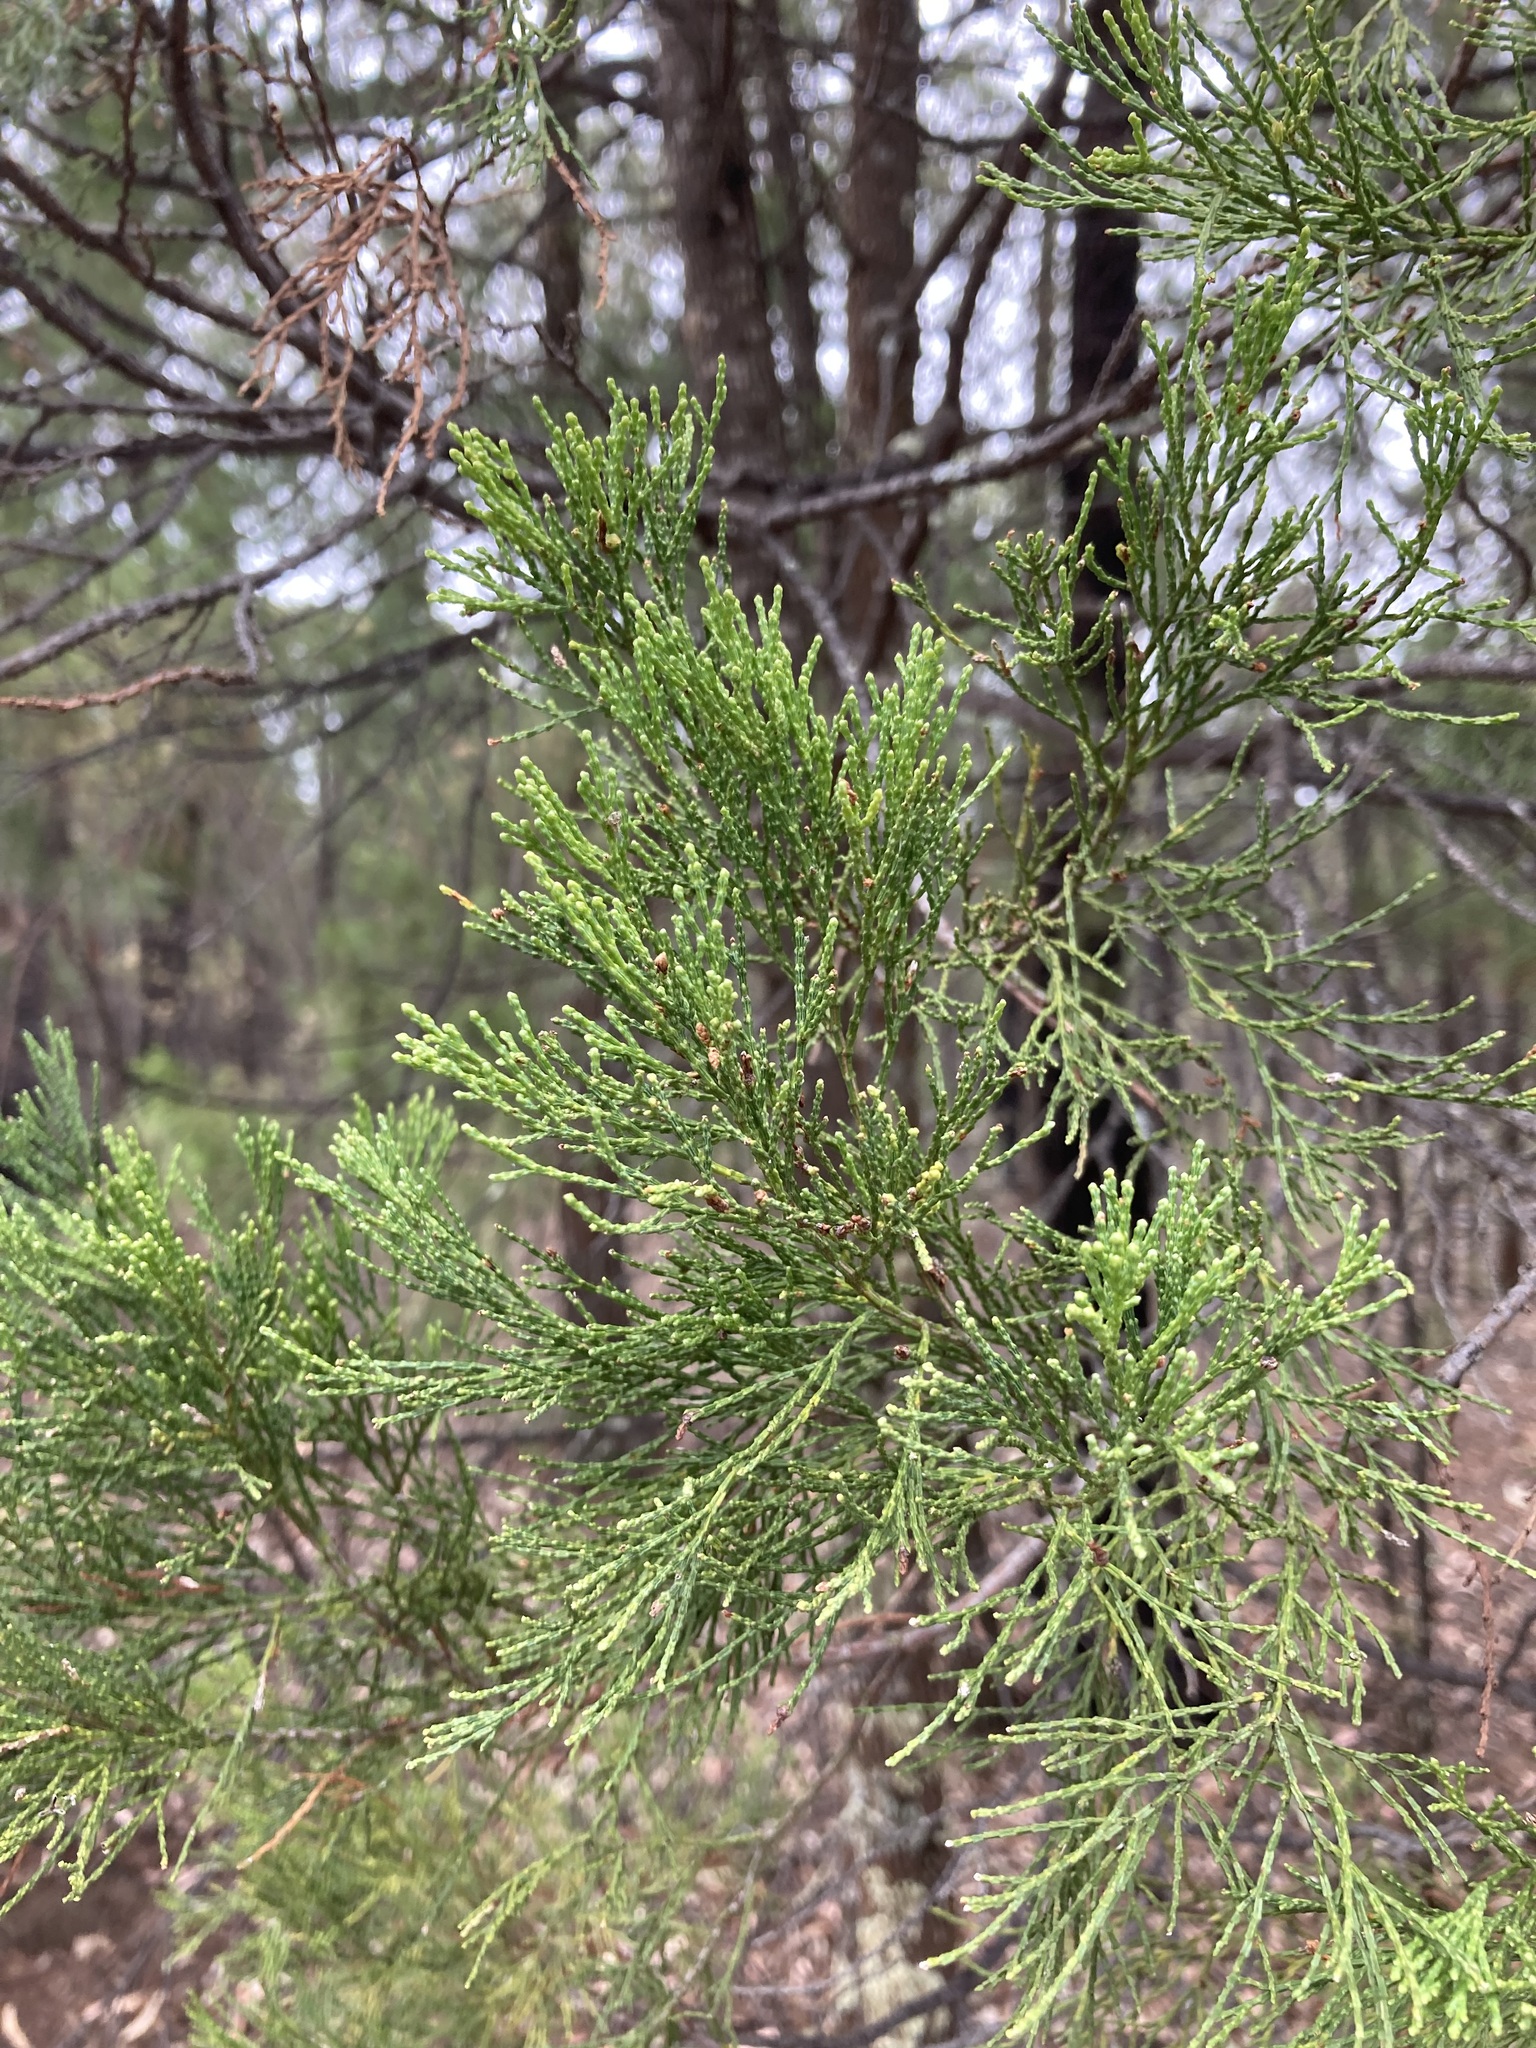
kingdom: Plantae
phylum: Tracheophyta
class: Pinopsida
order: Pinales
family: Cupressaceae
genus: Callitris
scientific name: Callitris endlicheri
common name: Black cypress-pine
